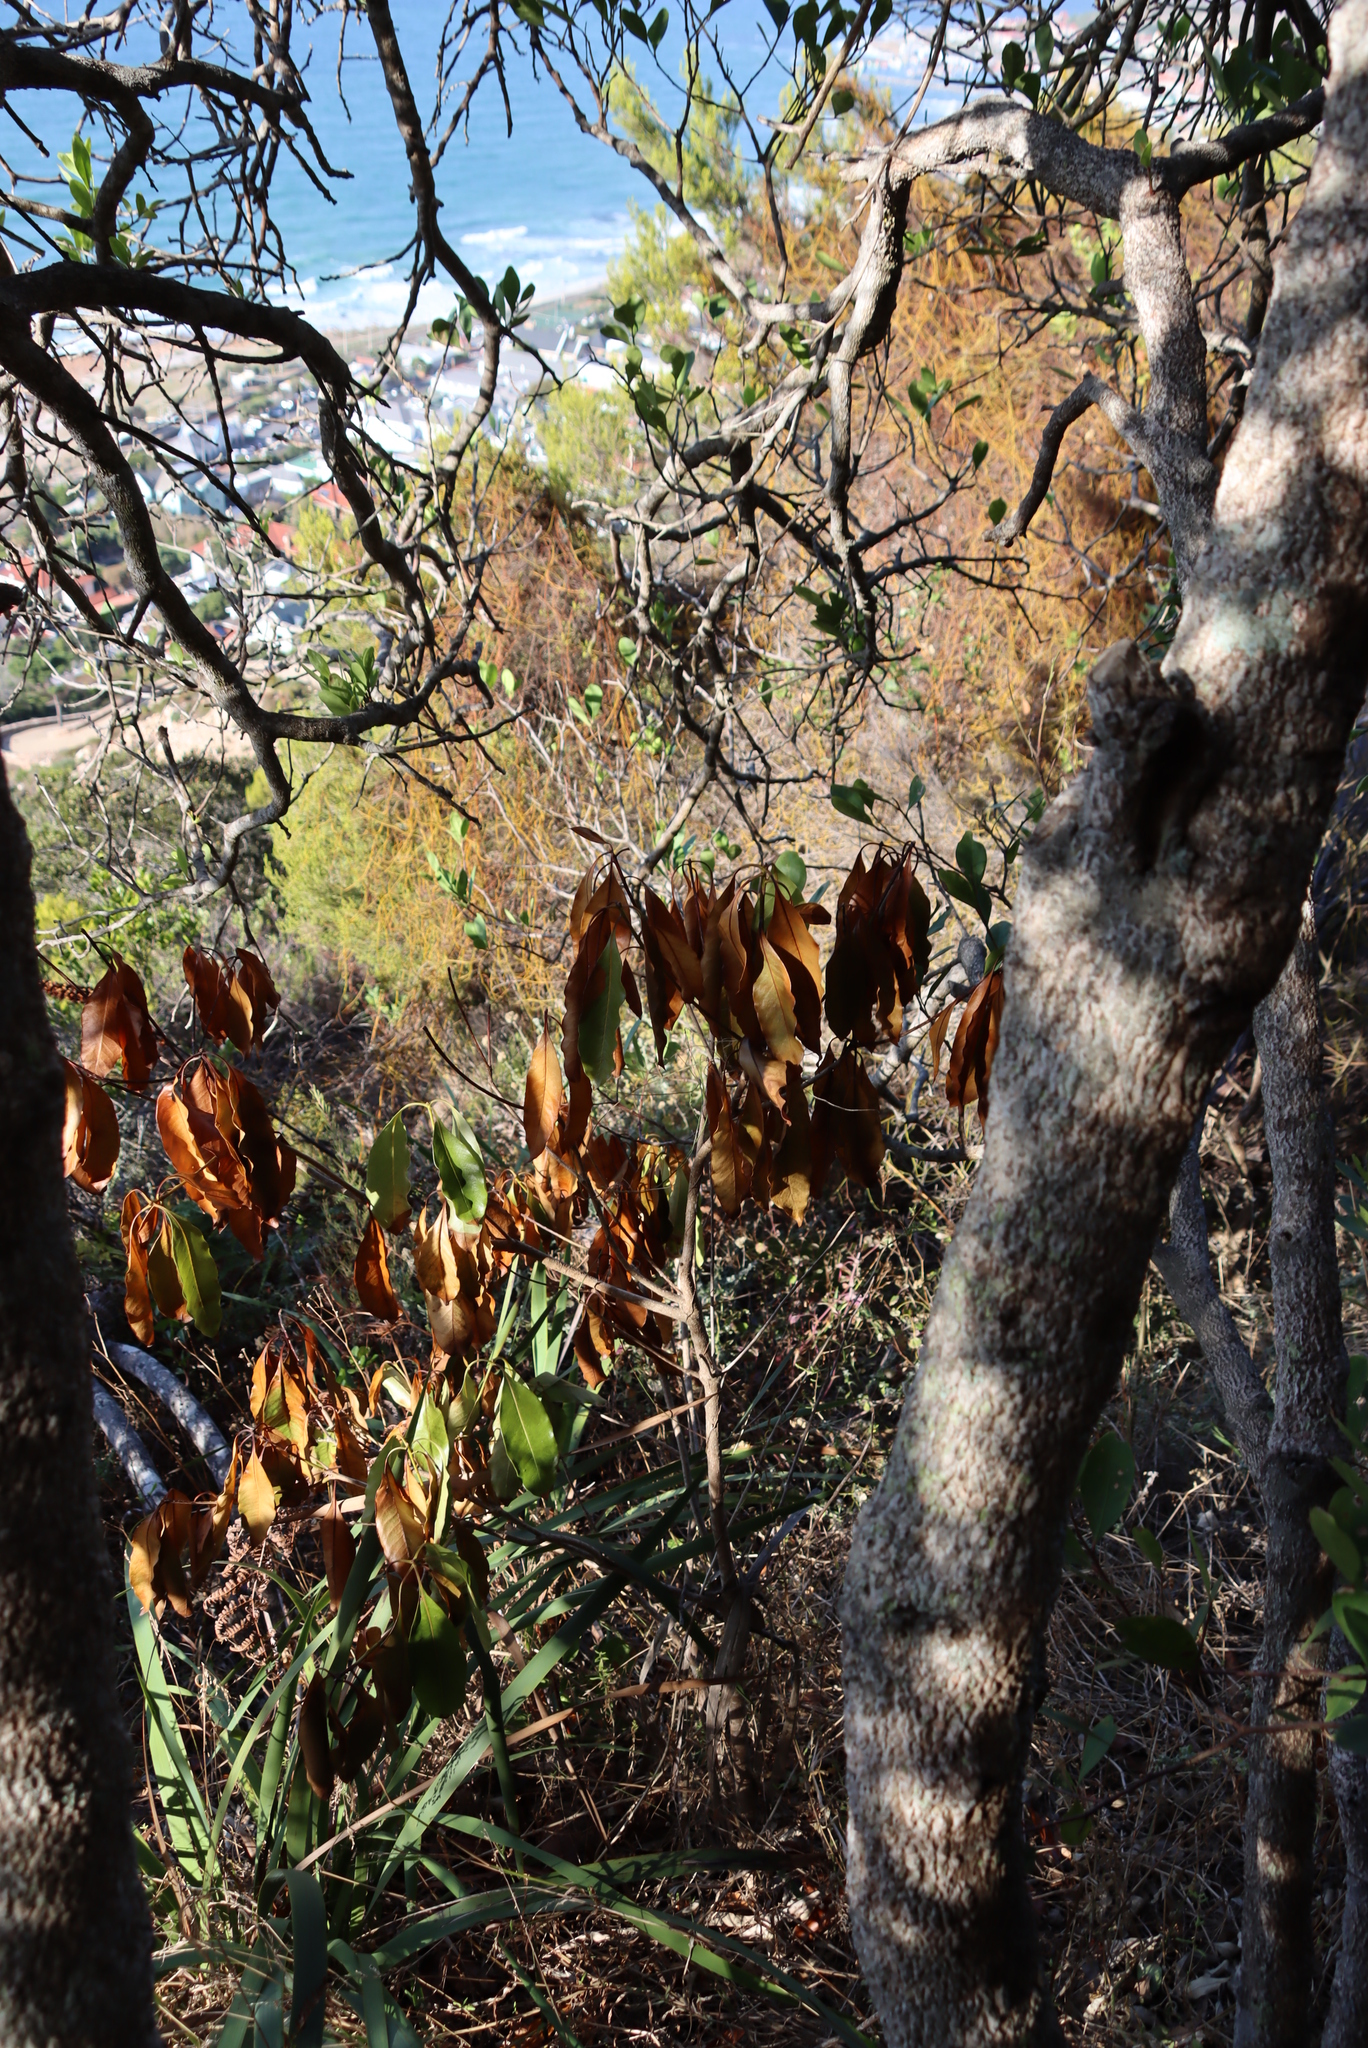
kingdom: Plantae
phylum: Tracheophyta
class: Magnoliopsida
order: Apiales
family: Pittosporaceae
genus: Pittosporum
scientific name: Pittosporum undulatum
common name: Australian cheesewood
